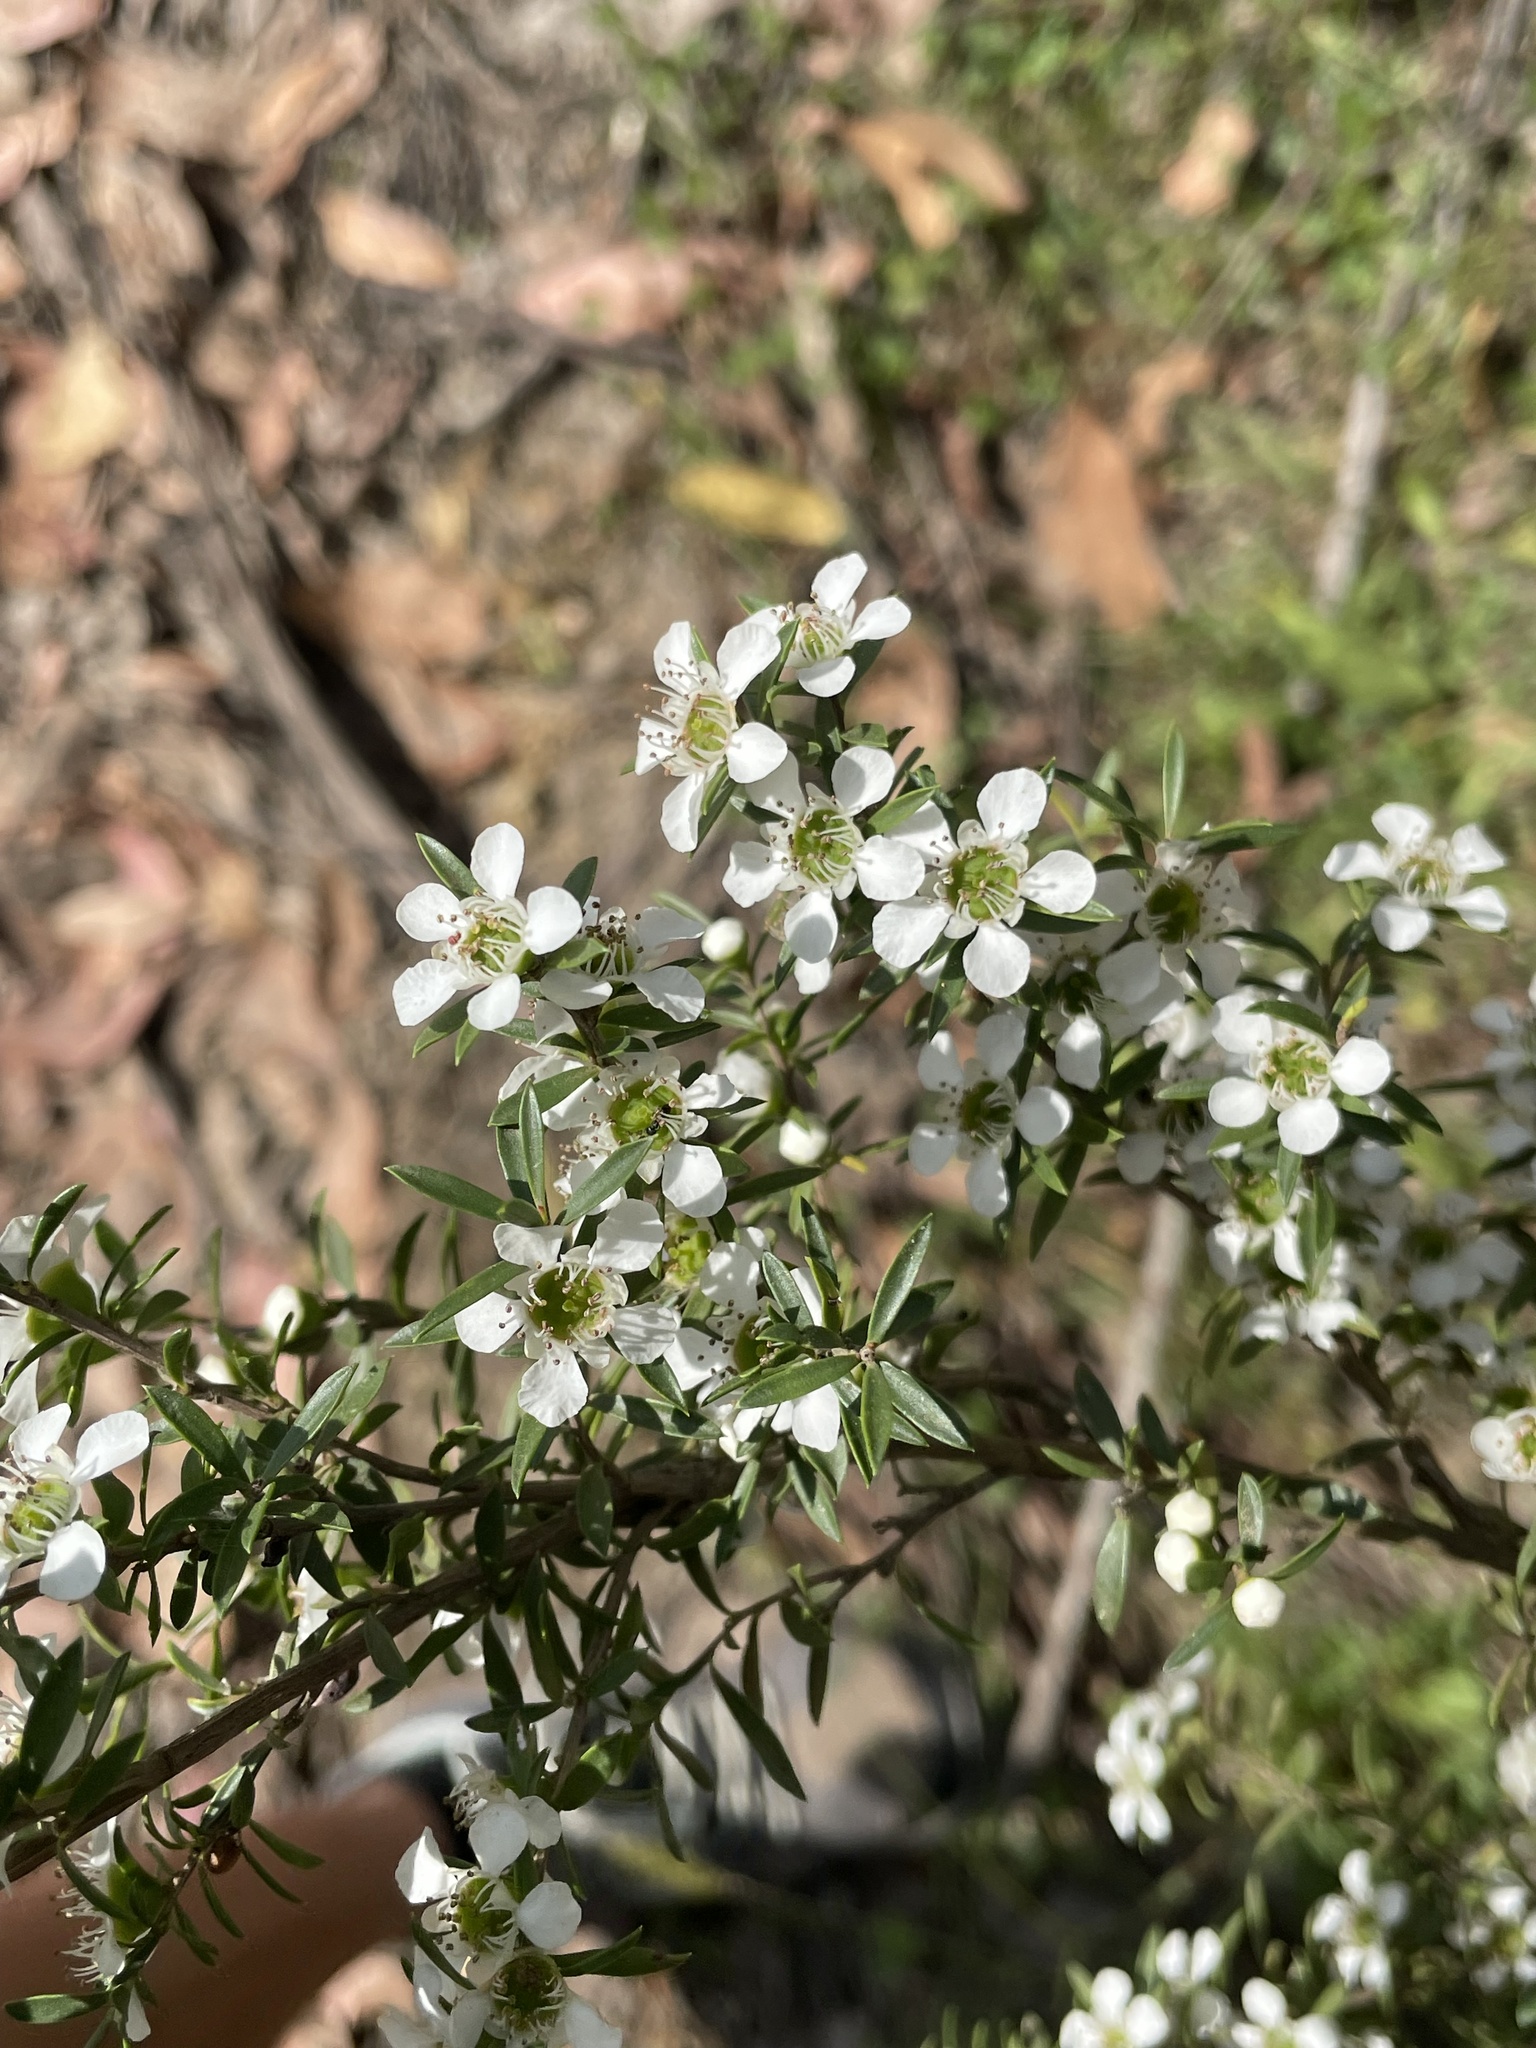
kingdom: Plantae
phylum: Tracheophyta
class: Magnoliopsida
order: Myrtales
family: Myrtaceae
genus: Leptospermum
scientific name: Leptospermum continentale
